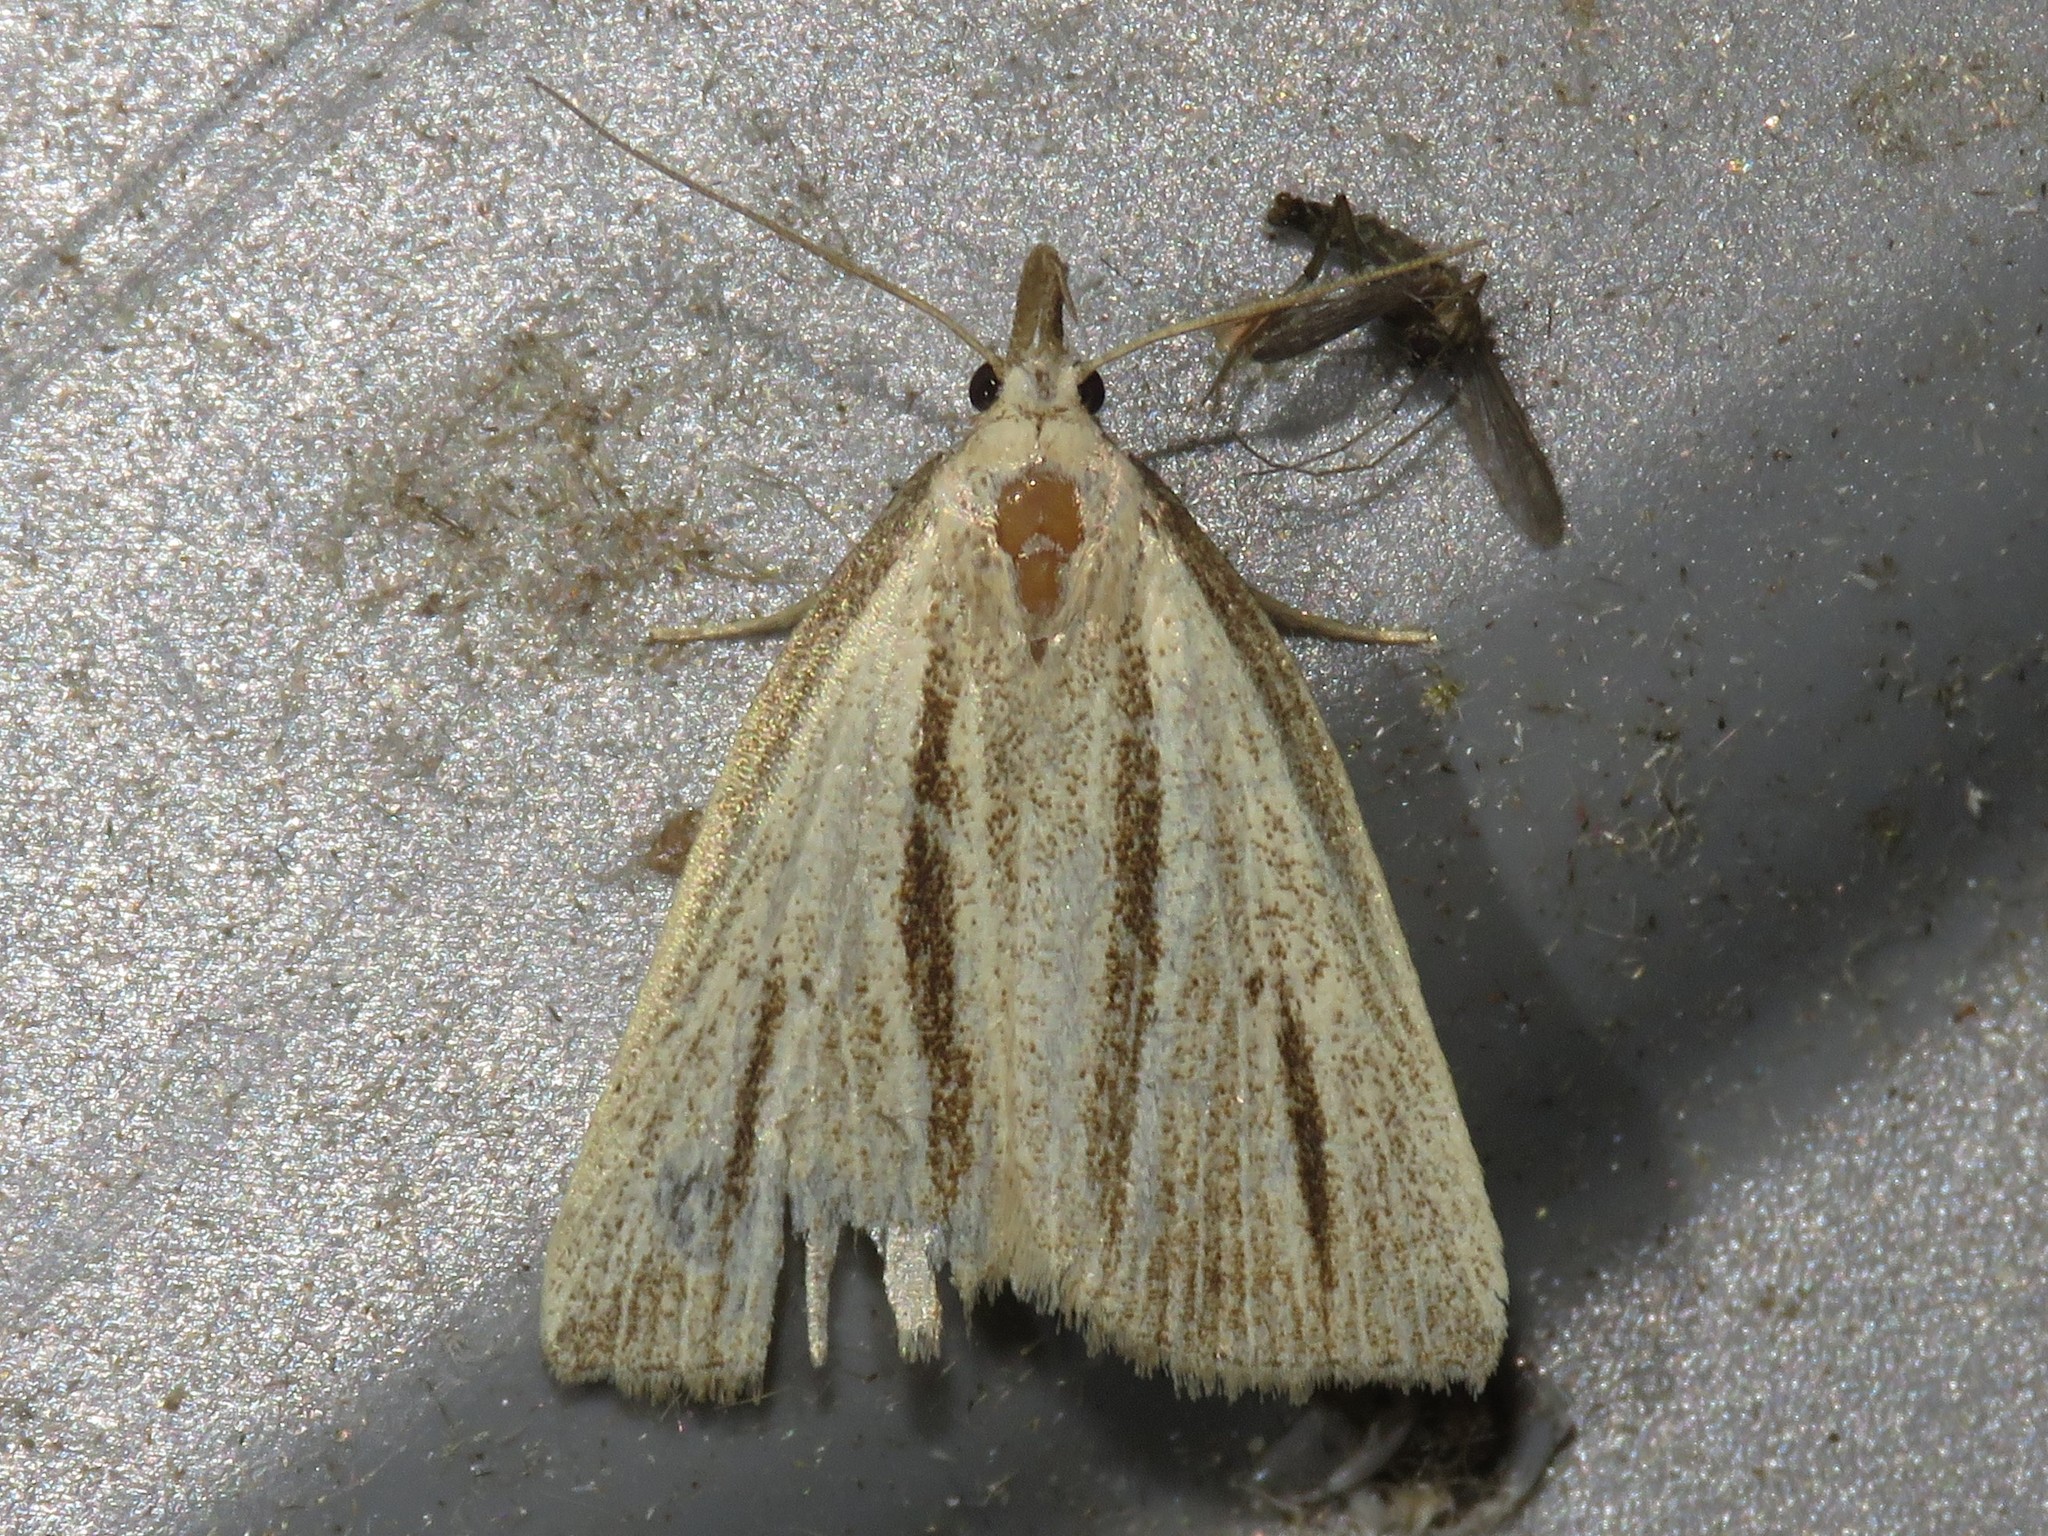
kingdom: Animalia
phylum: Arthropoda
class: Insecta
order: Lepidoptera
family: Erebidae
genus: Macrochilo
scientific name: Macrochilo bivittata
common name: Two-striped cord grass moth
